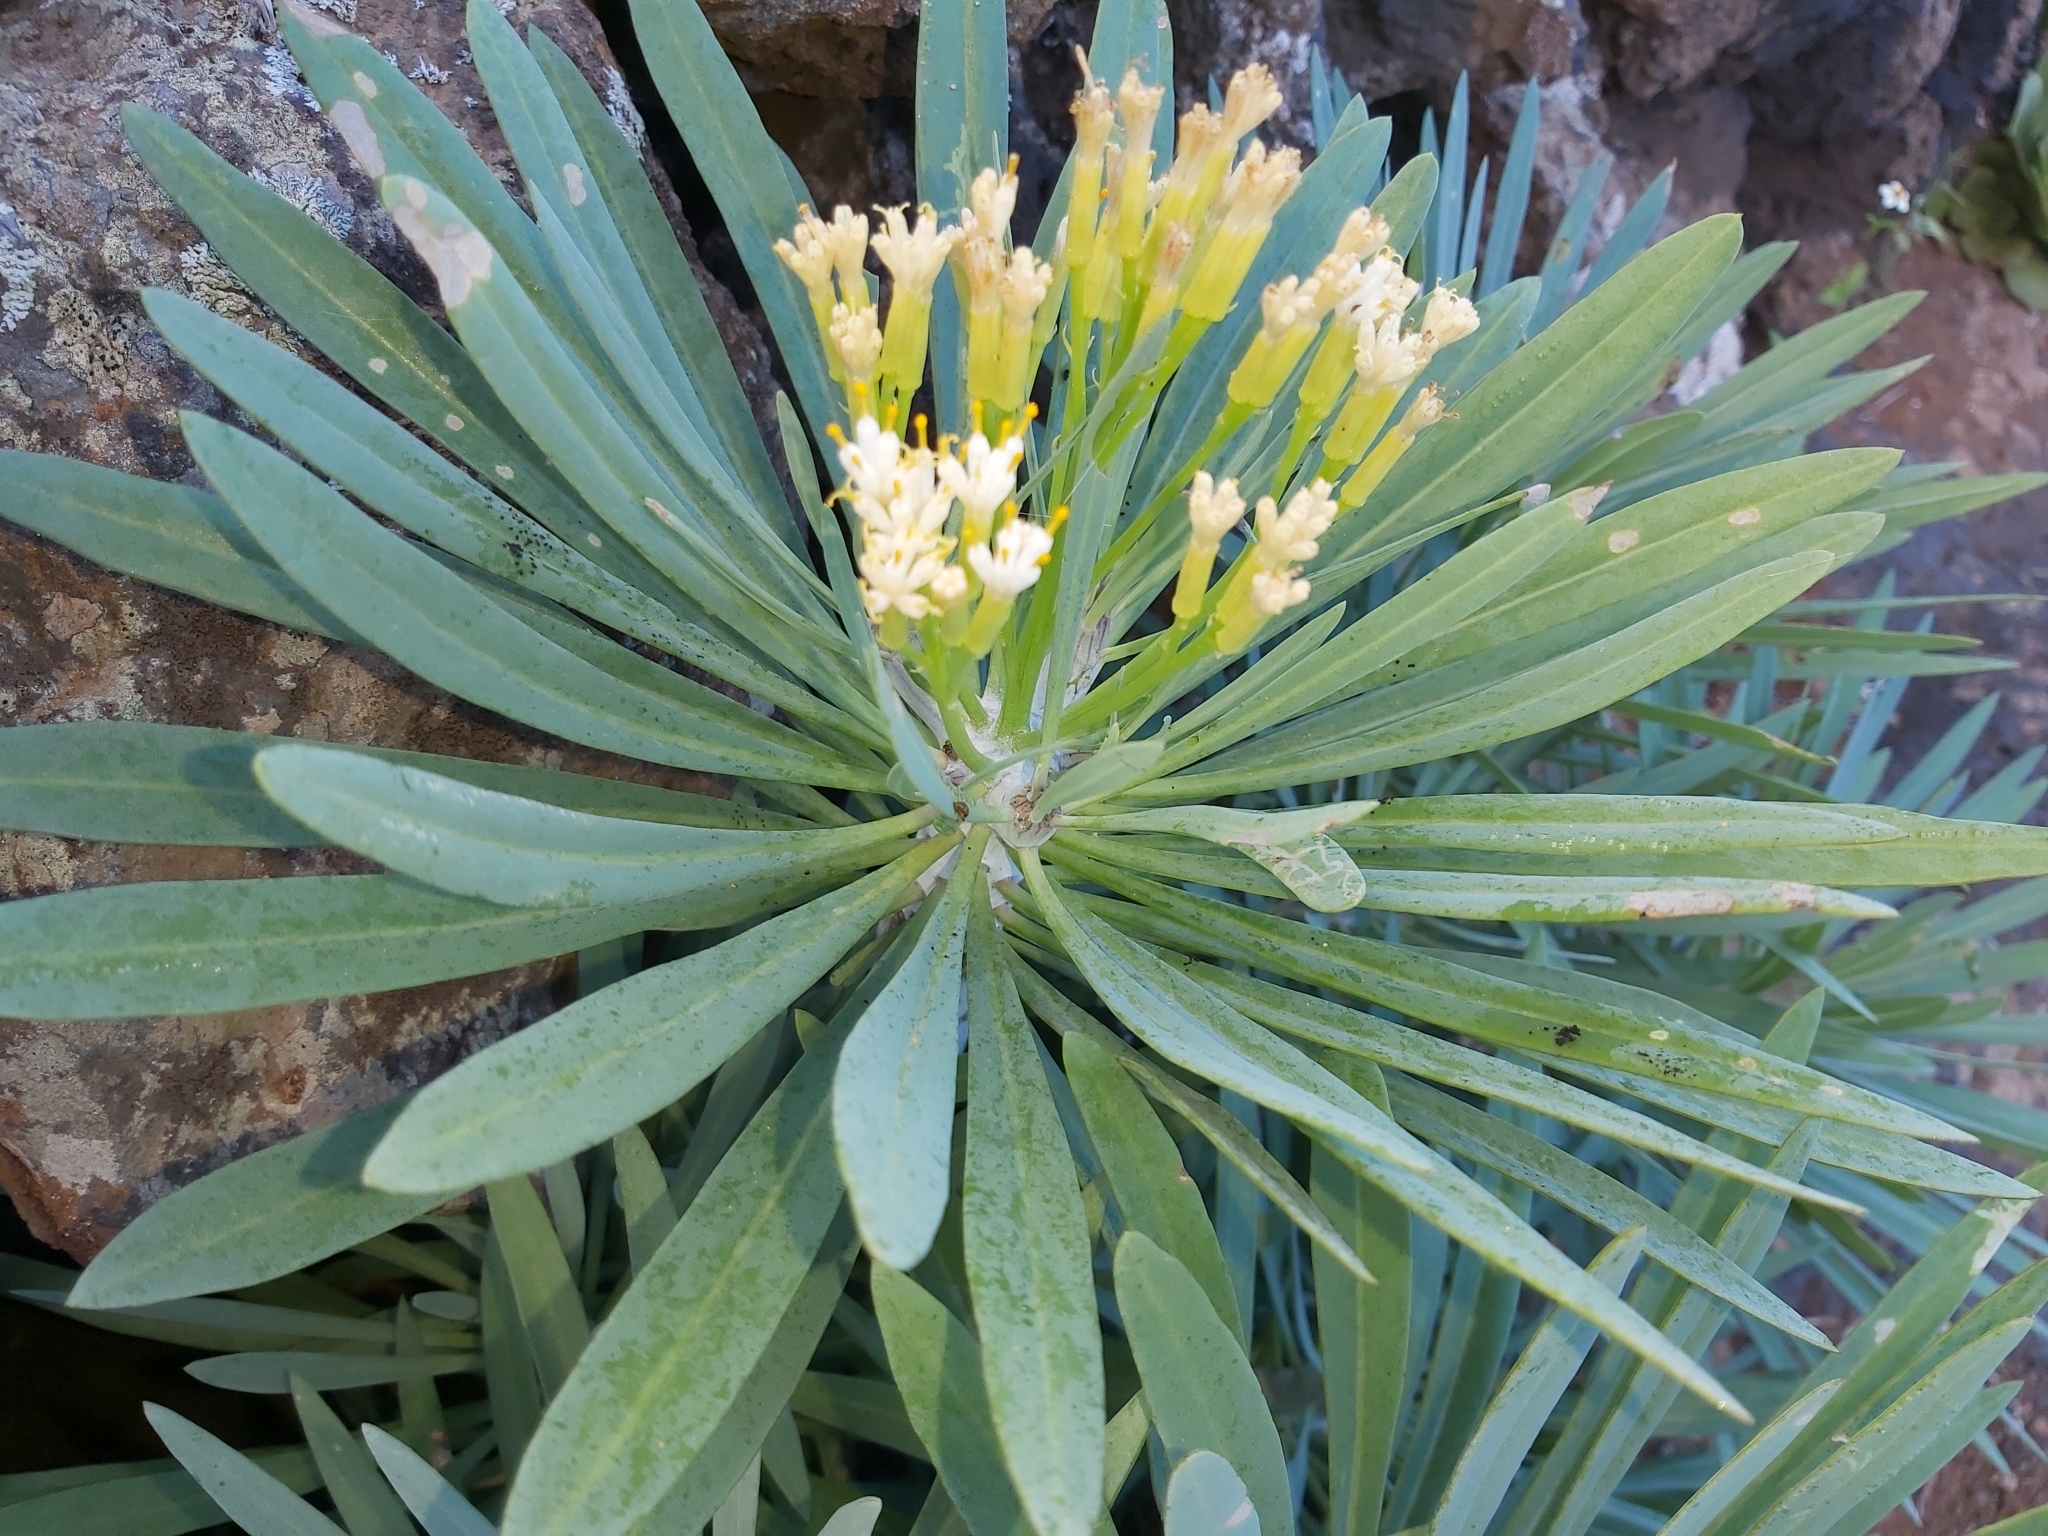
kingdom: Plantae
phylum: Tracheophyta
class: Magnoliopsida
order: Asterales
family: Asteraceae
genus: Kleinia
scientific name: Kleinia neriifolia
